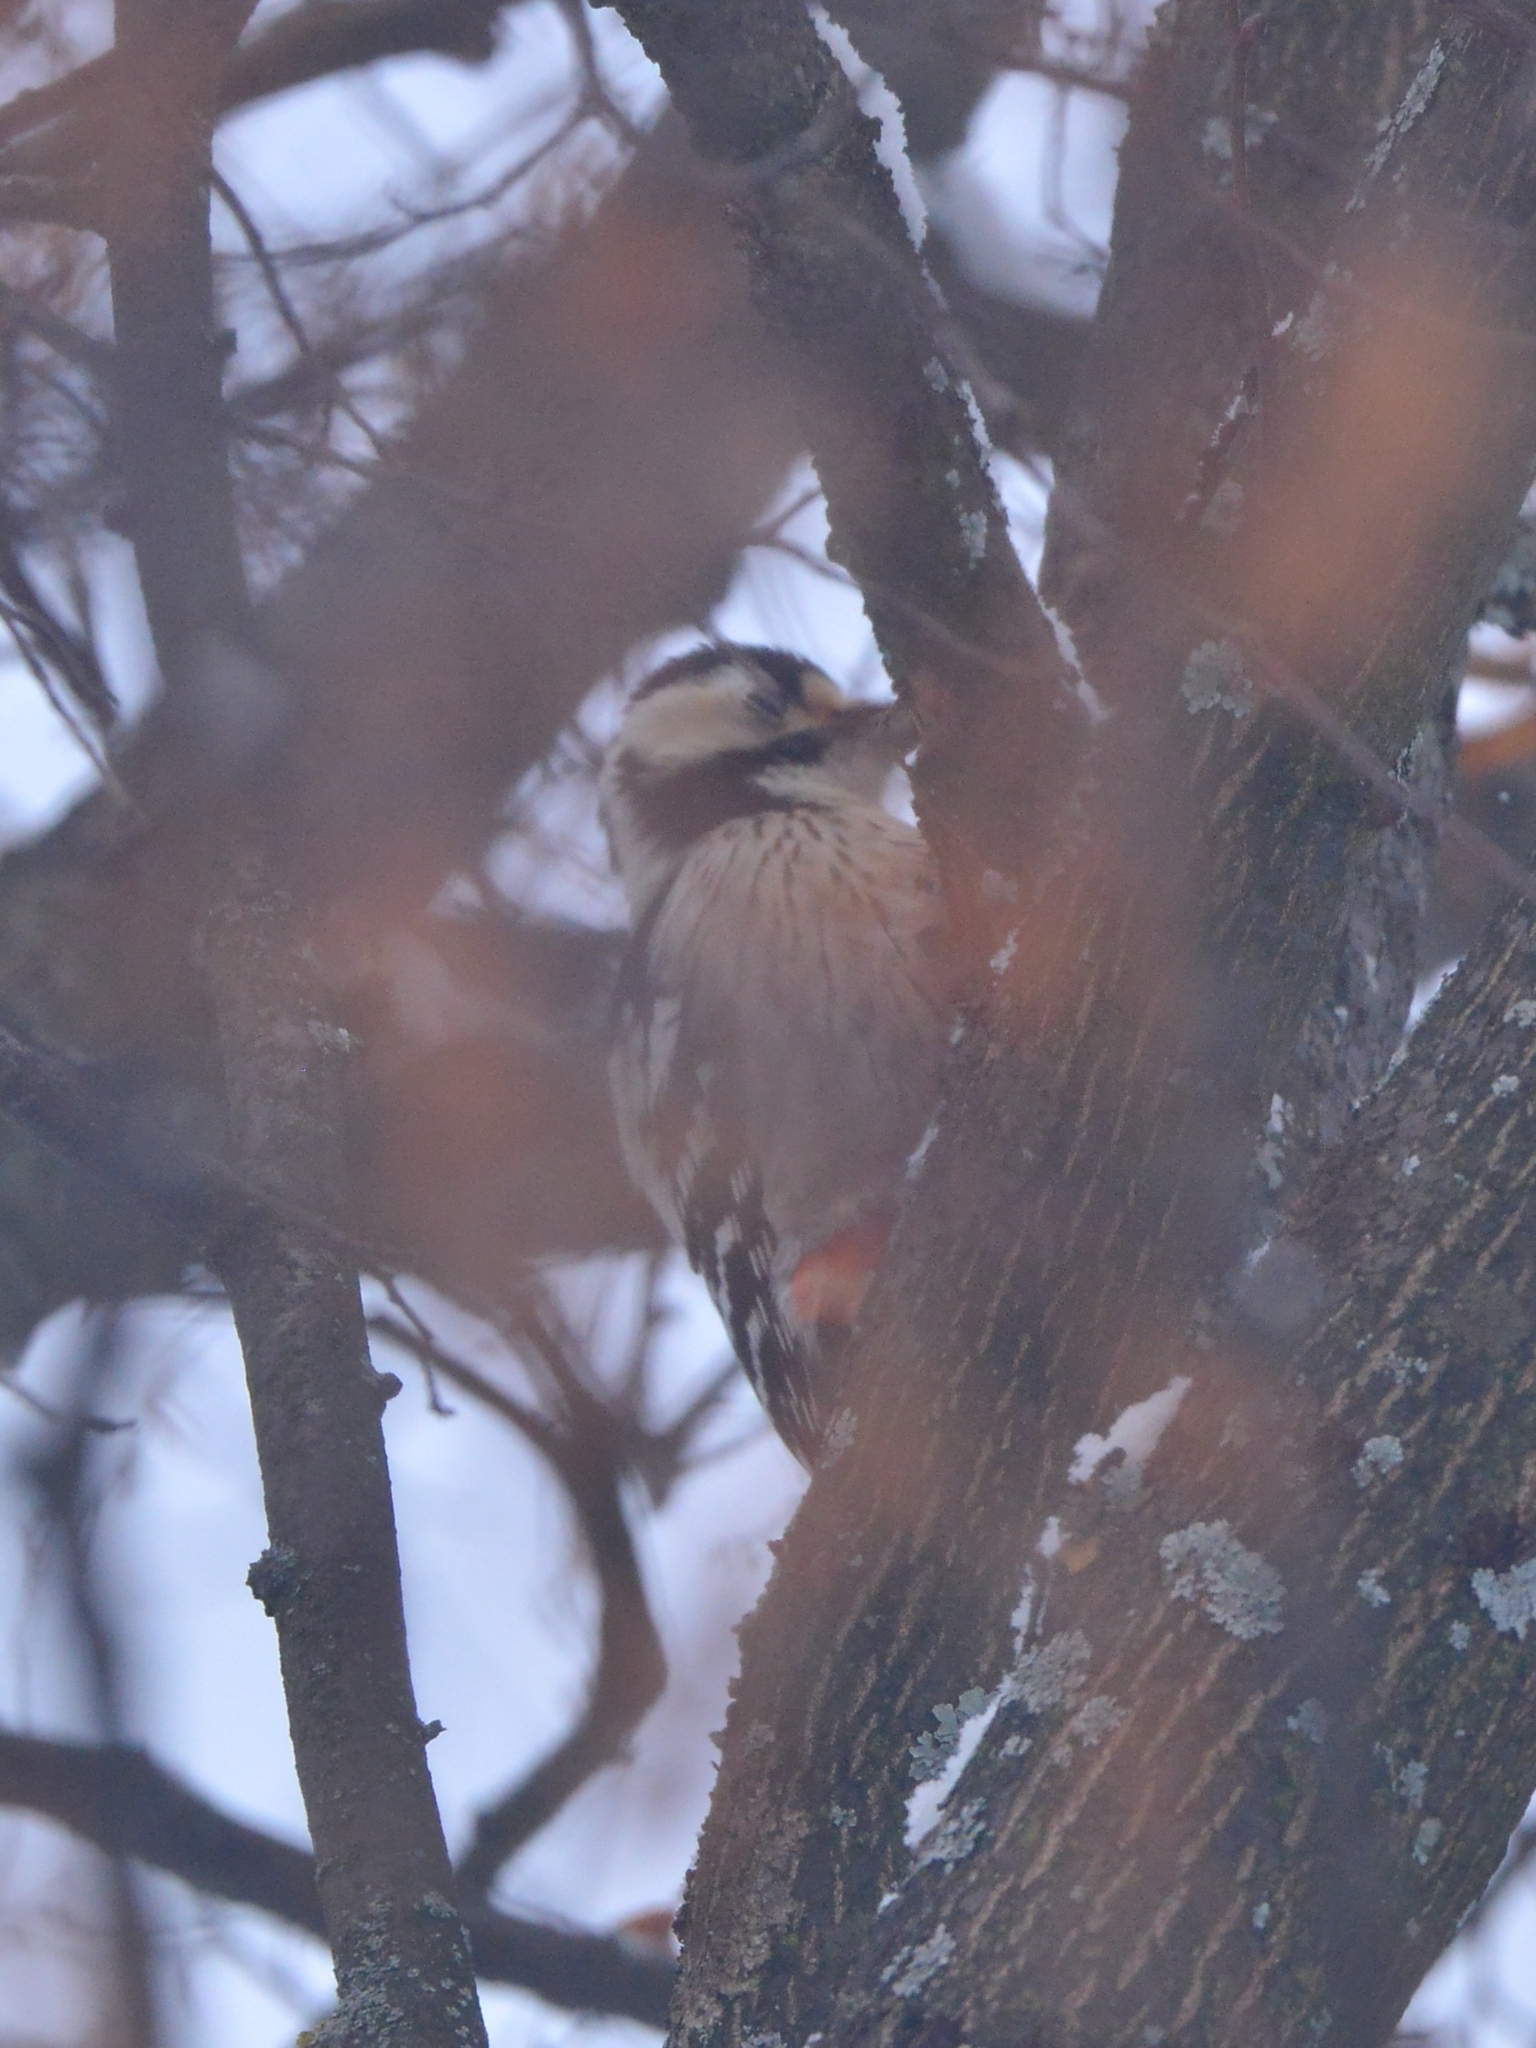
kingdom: Animalia
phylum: Chordata
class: Aves
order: Piciformes
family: Picidae
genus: Dendrocopos
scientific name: Dendrocopos leucotos
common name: White-backed woodpecker
